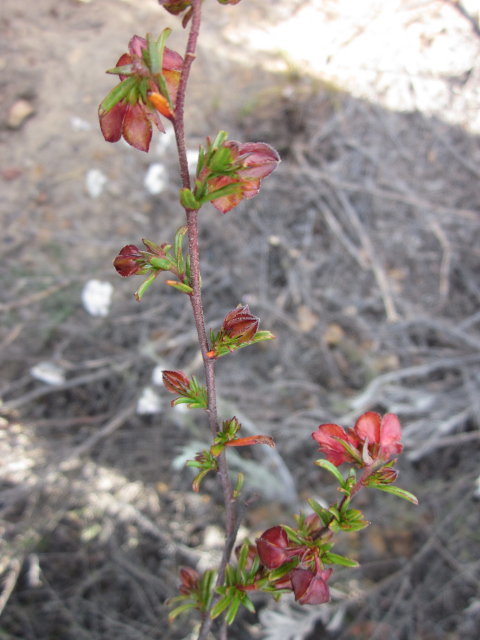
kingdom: Plantae
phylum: Tracheophyta
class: Magnoliopsida
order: Malvales
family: Malvaceae
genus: Hermannia
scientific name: Hermannia angularis
